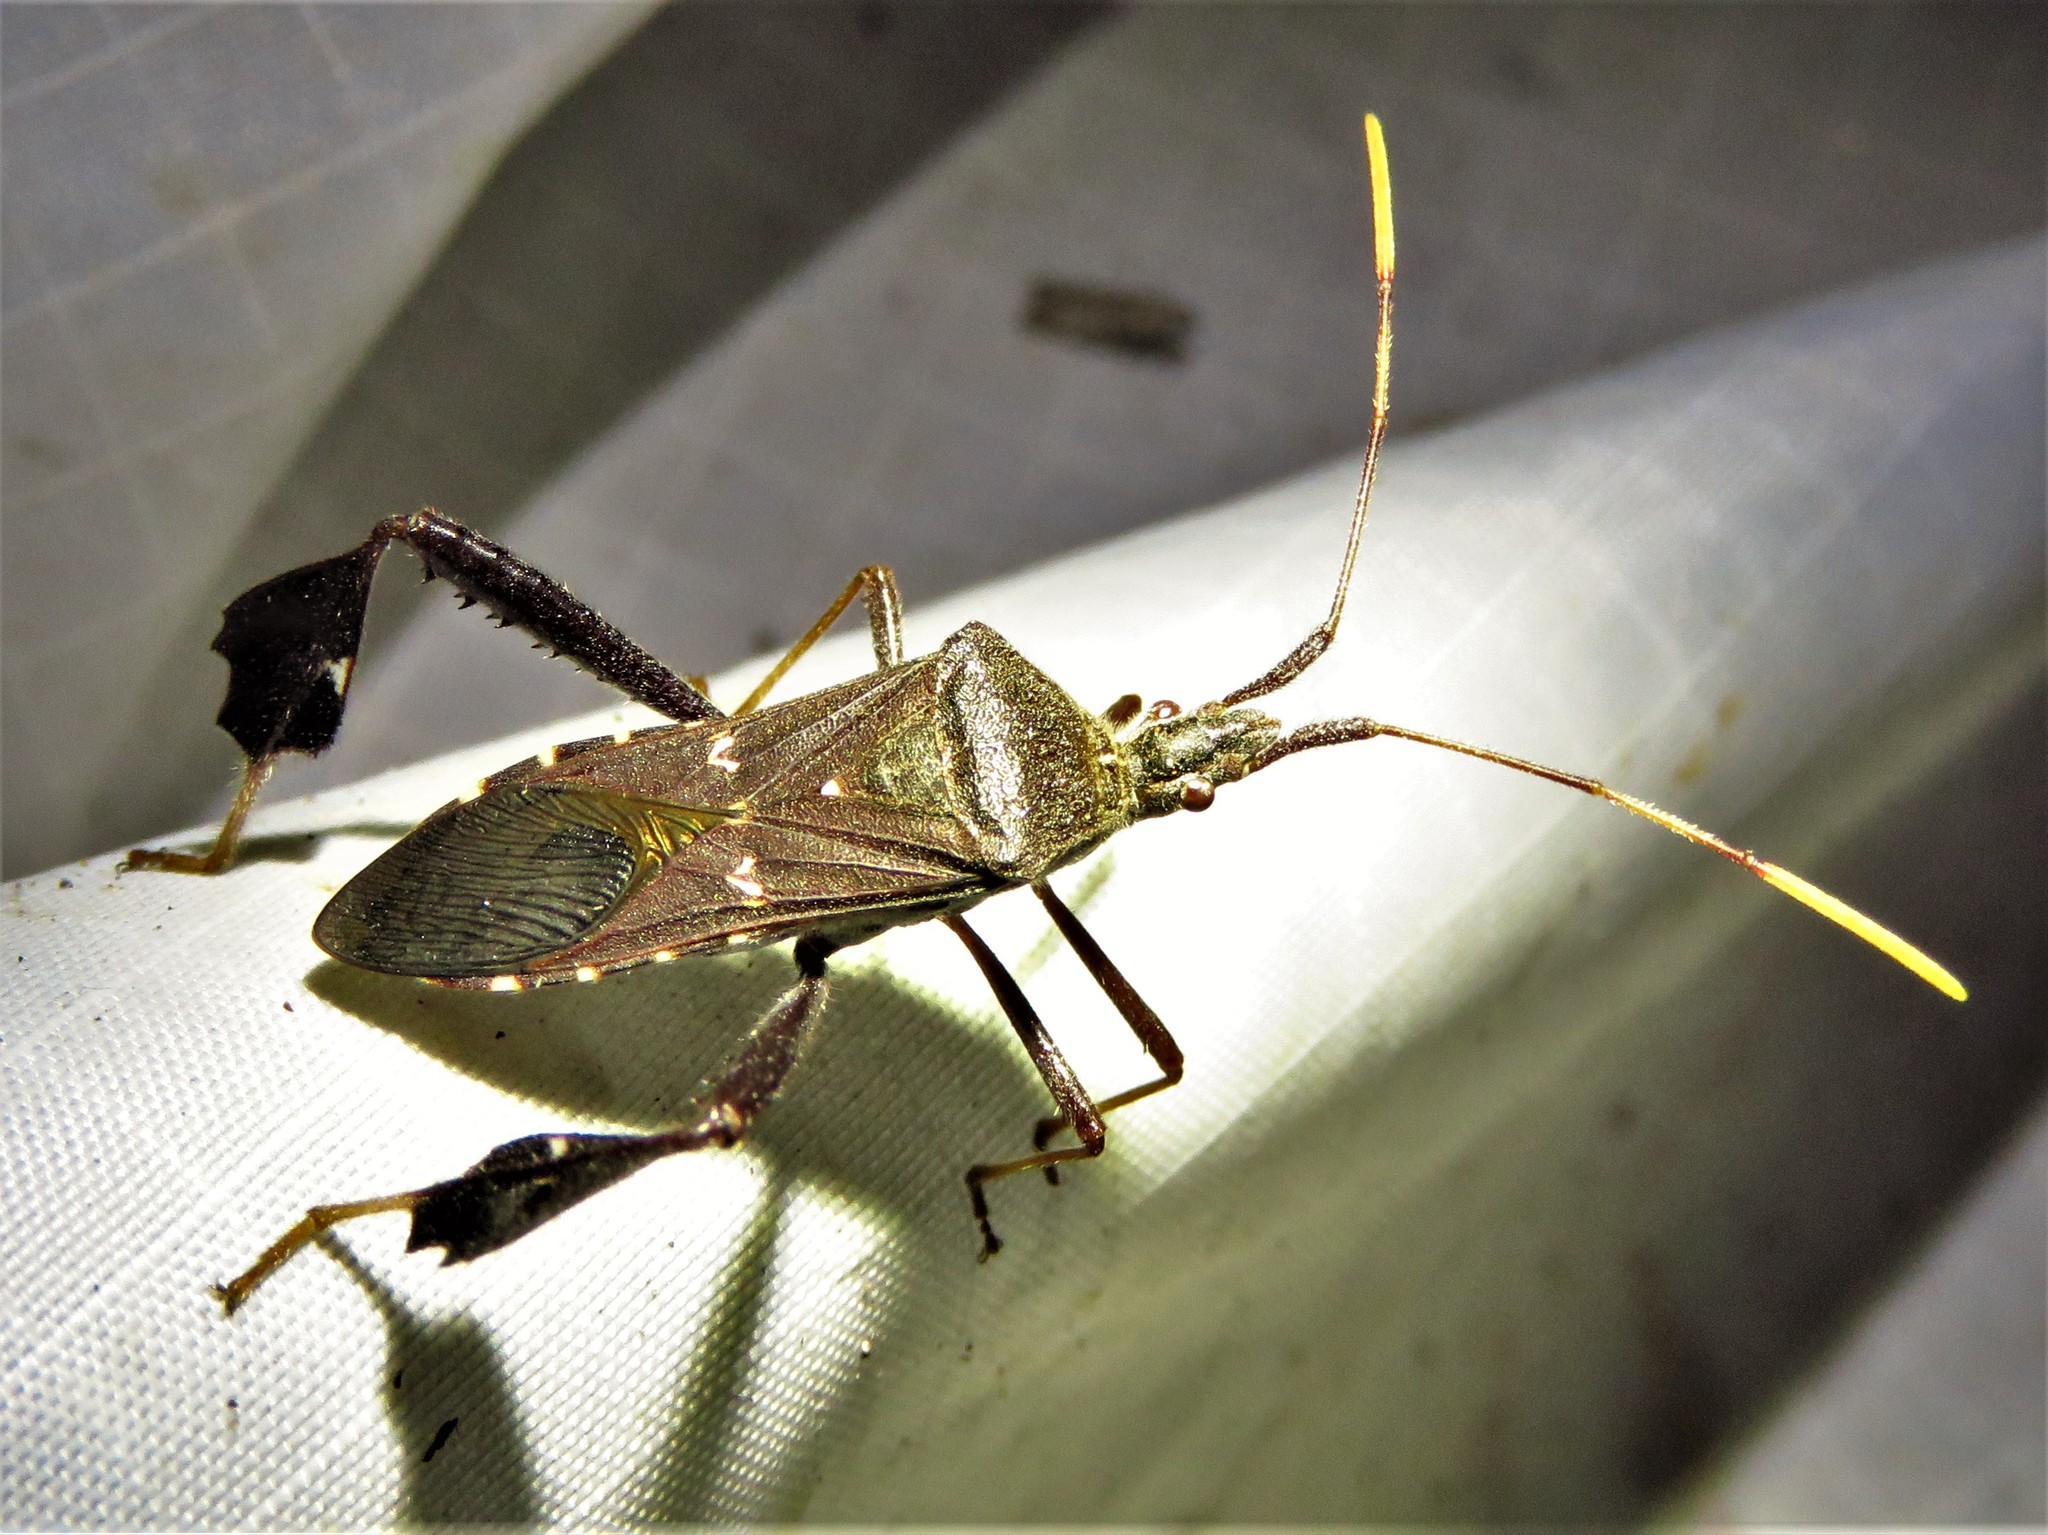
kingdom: Animalia
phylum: Arthropoda
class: Insecta
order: Hemiptera
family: Coreidae
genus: Leptoglossus
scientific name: Leptoglossus oppositus
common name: Northern leaf-footed bug
